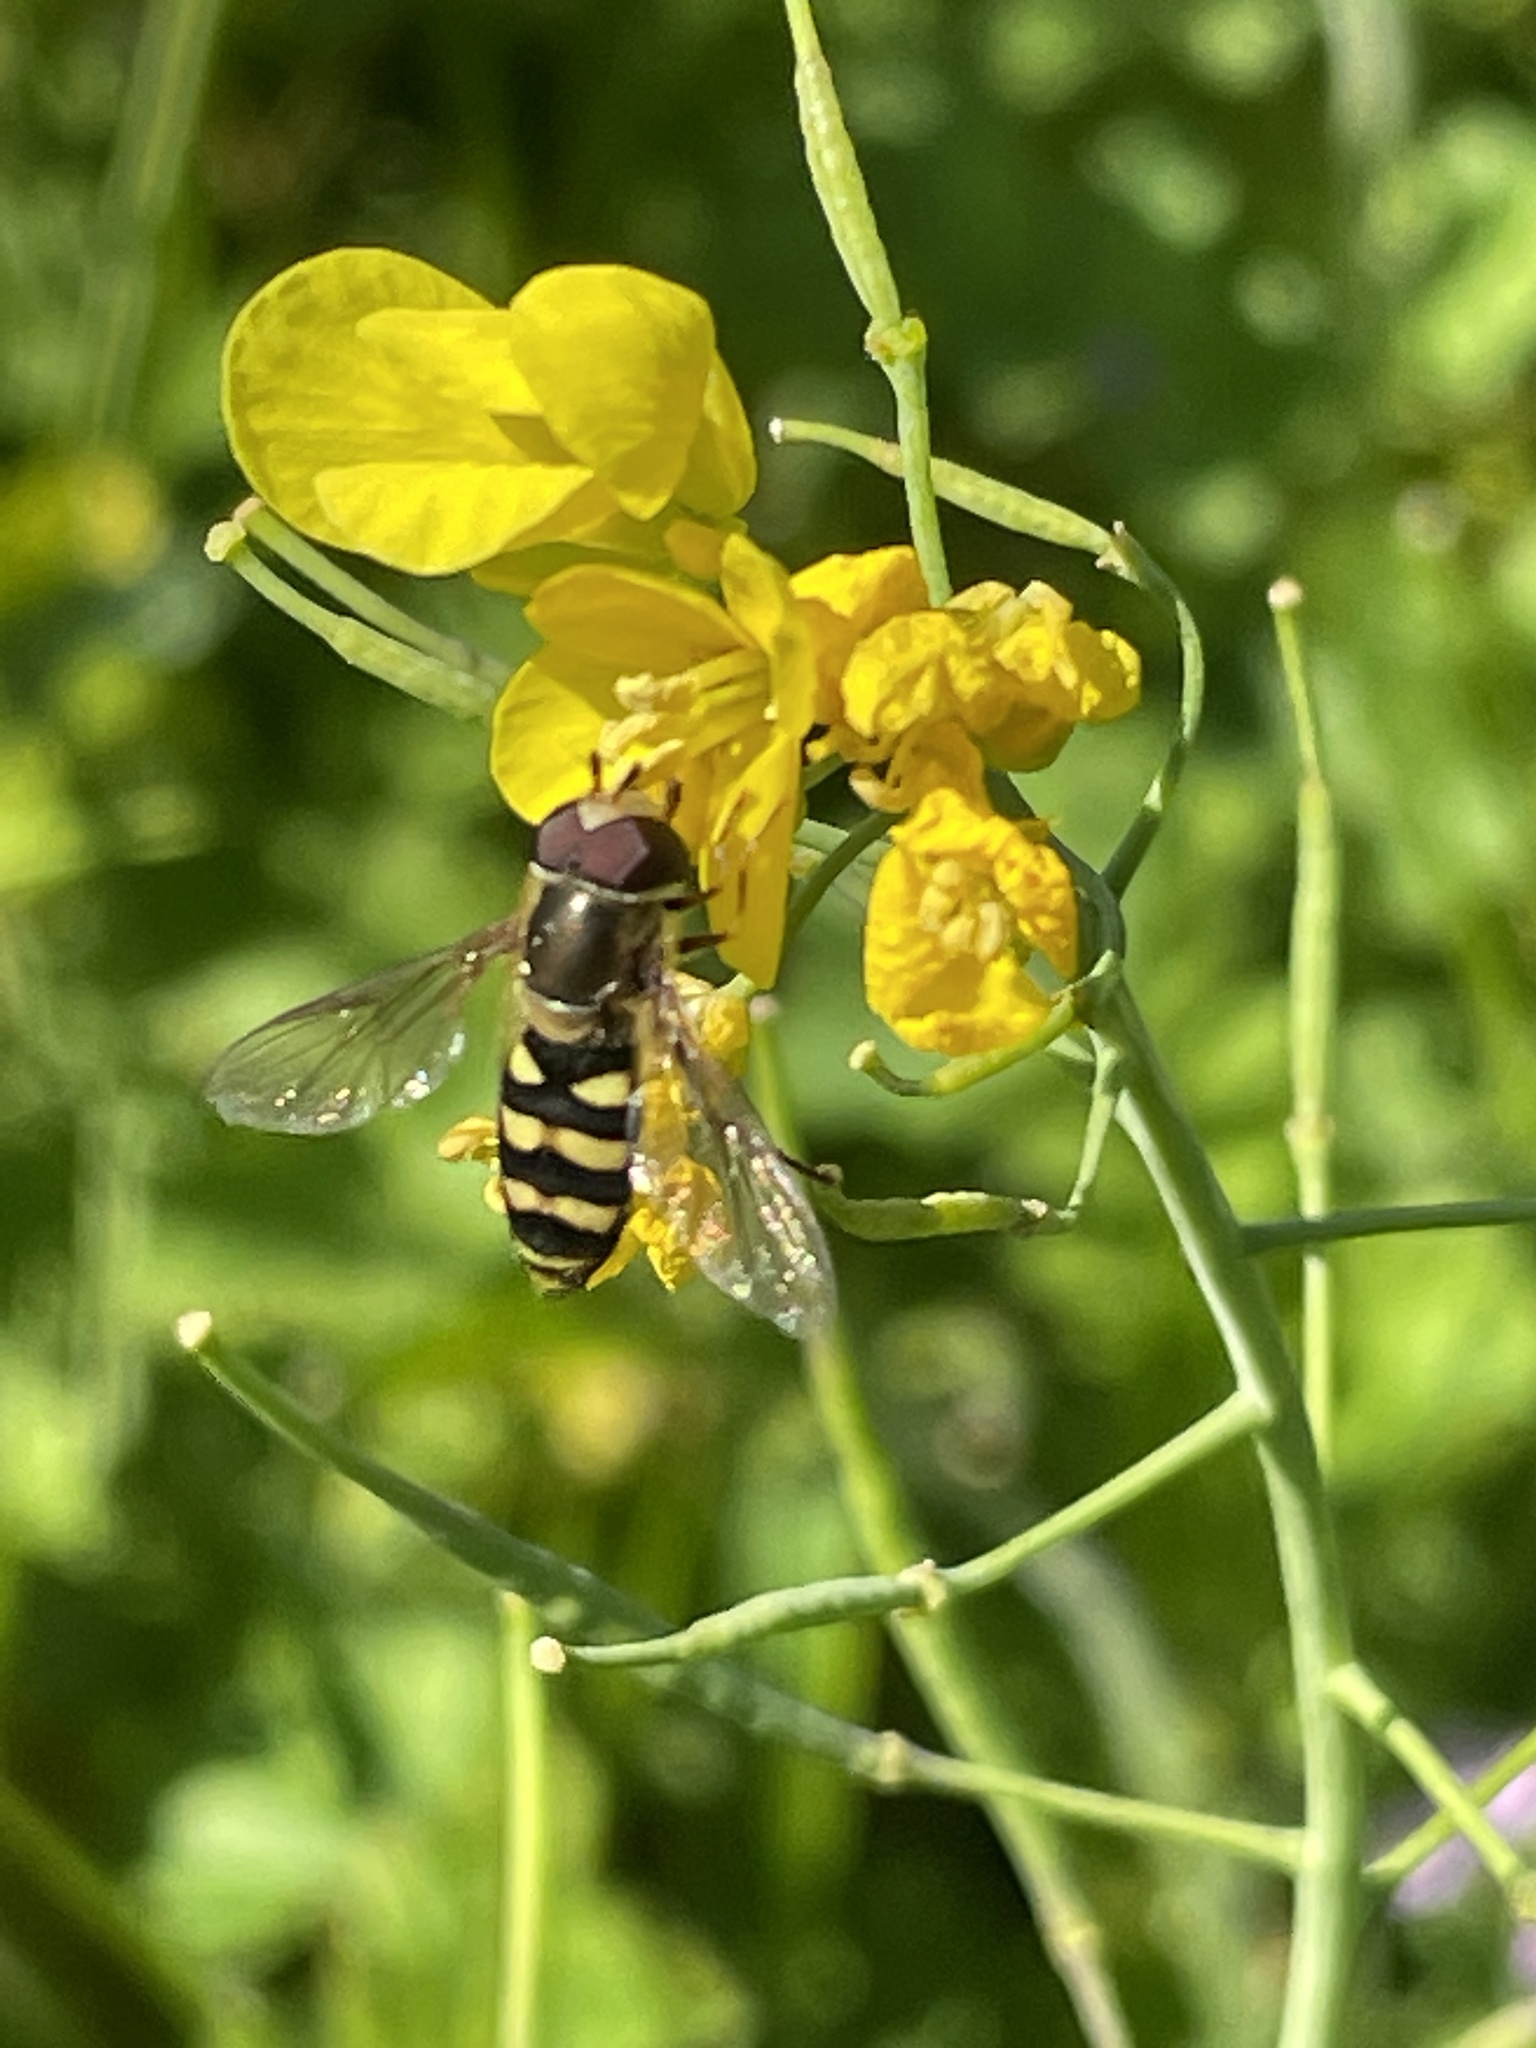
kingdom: Animalia
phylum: Arthropoda
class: Insecta
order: Diptera
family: Syrphidae
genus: Eupeodes
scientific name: Eupeodes fumipennis
